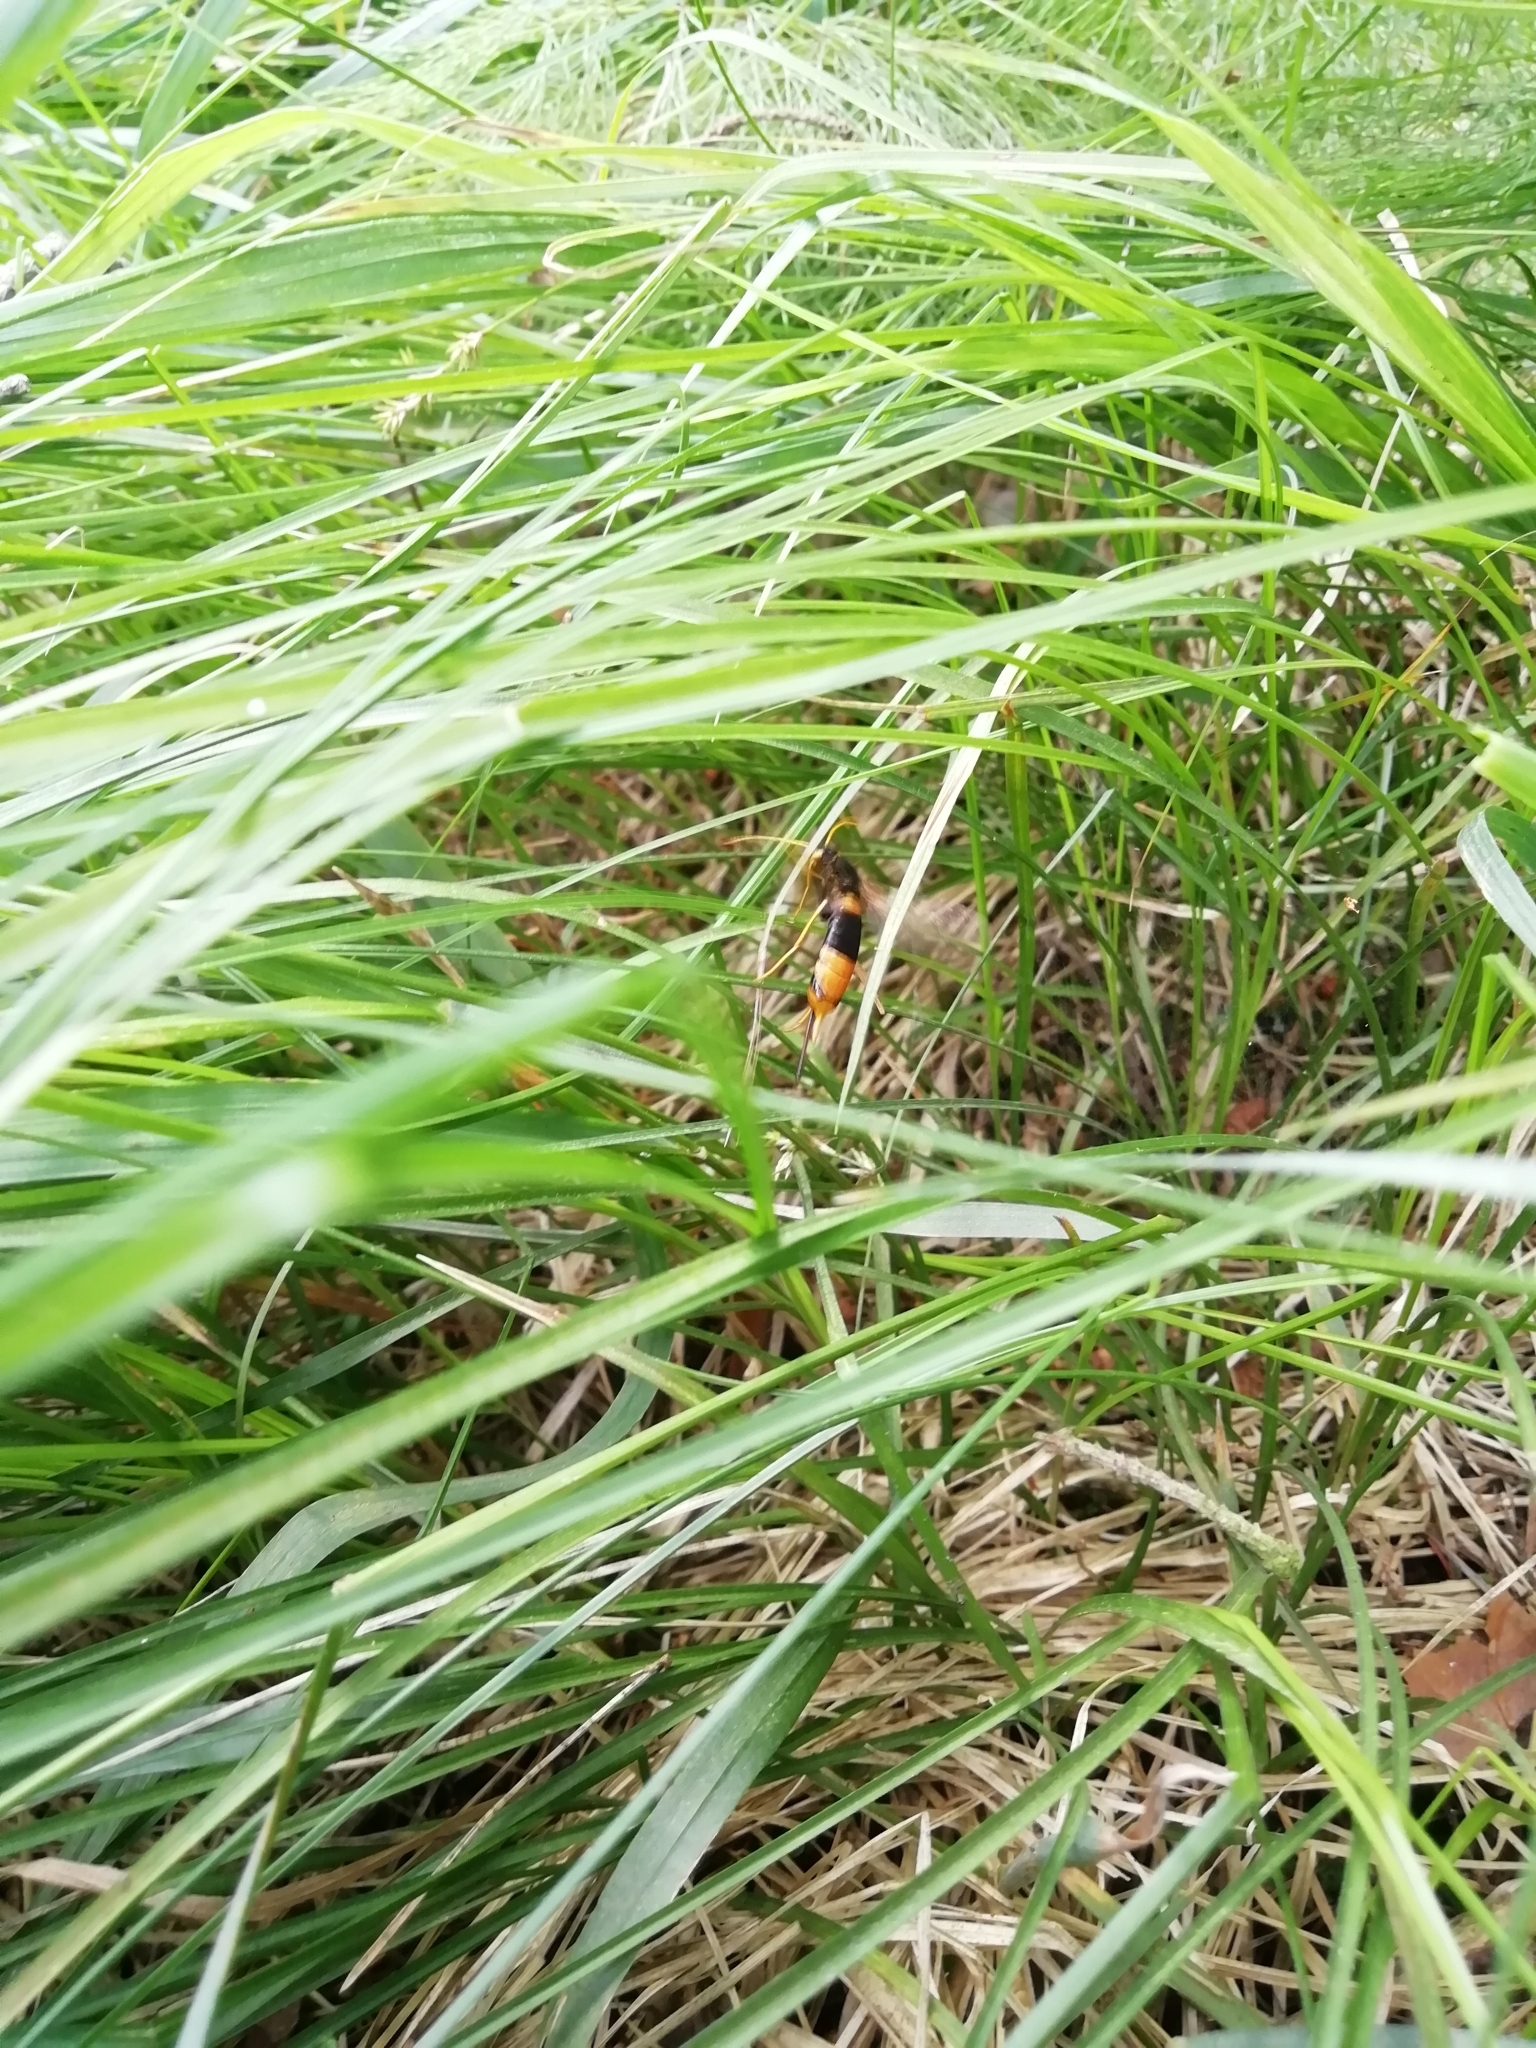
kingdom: Animalia
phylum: Arthropoda
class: Insecta
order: Hymenoptera
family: Siricidae
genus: Urocerus
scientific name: Urocerus gigas
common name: Giant woodwasp
